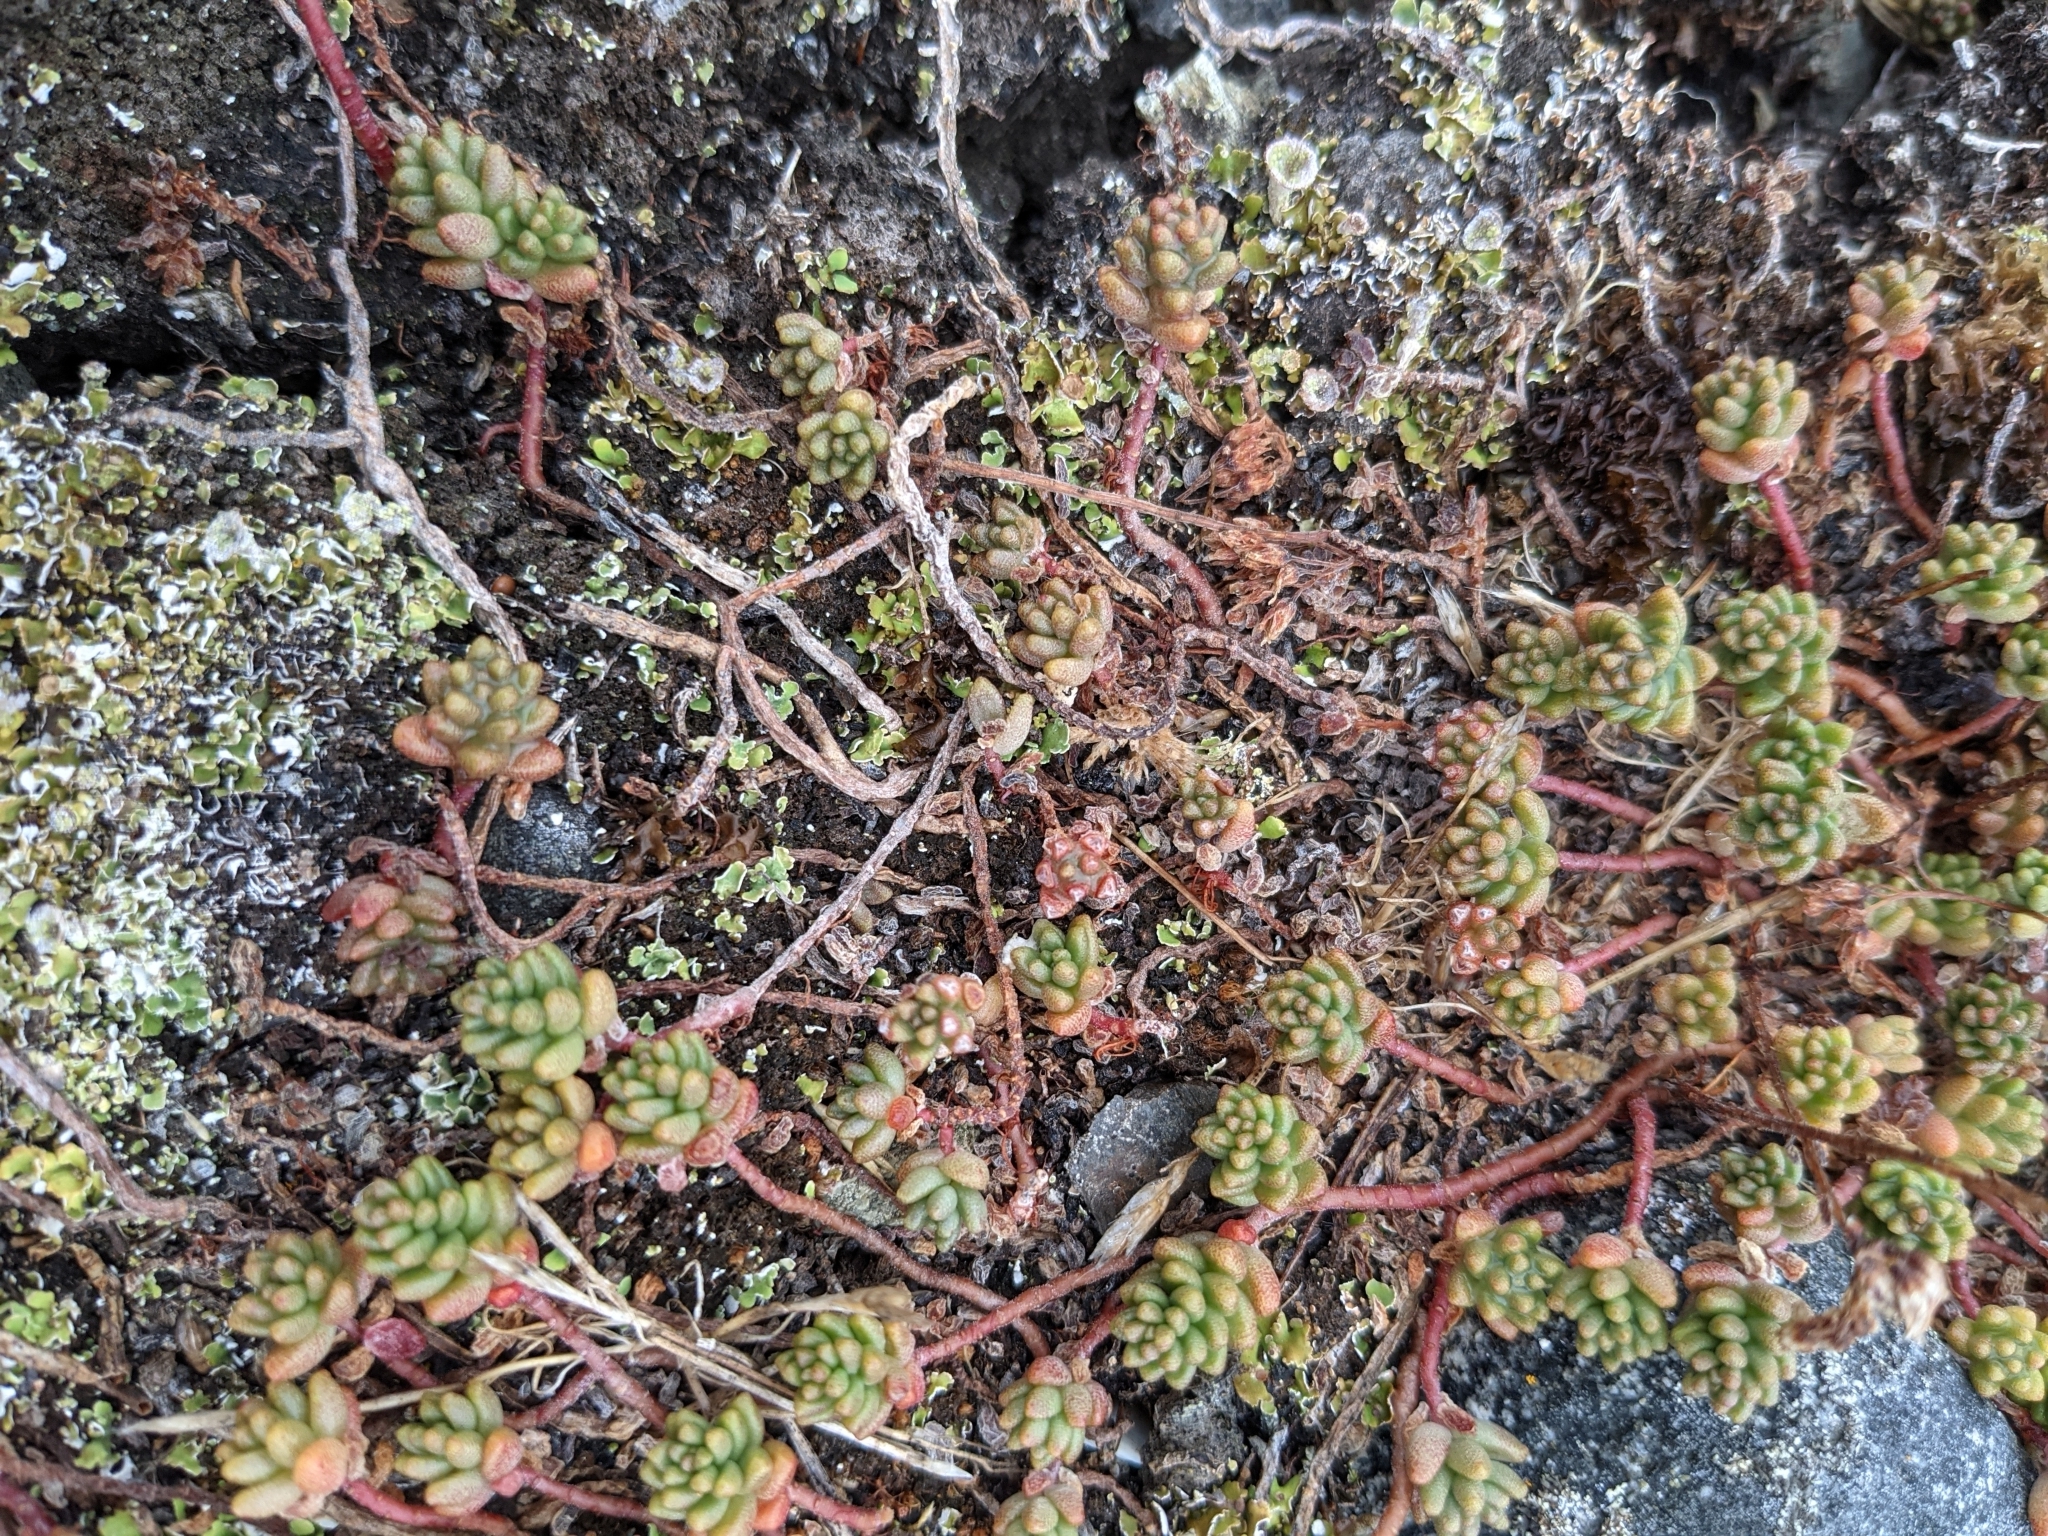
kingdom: Plantae
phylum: Tracheophyta
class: Magnoliopsida
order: Saxifragales
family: Crassulaceae
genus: Sedum
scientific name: Sedum album
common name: White stonecrop
